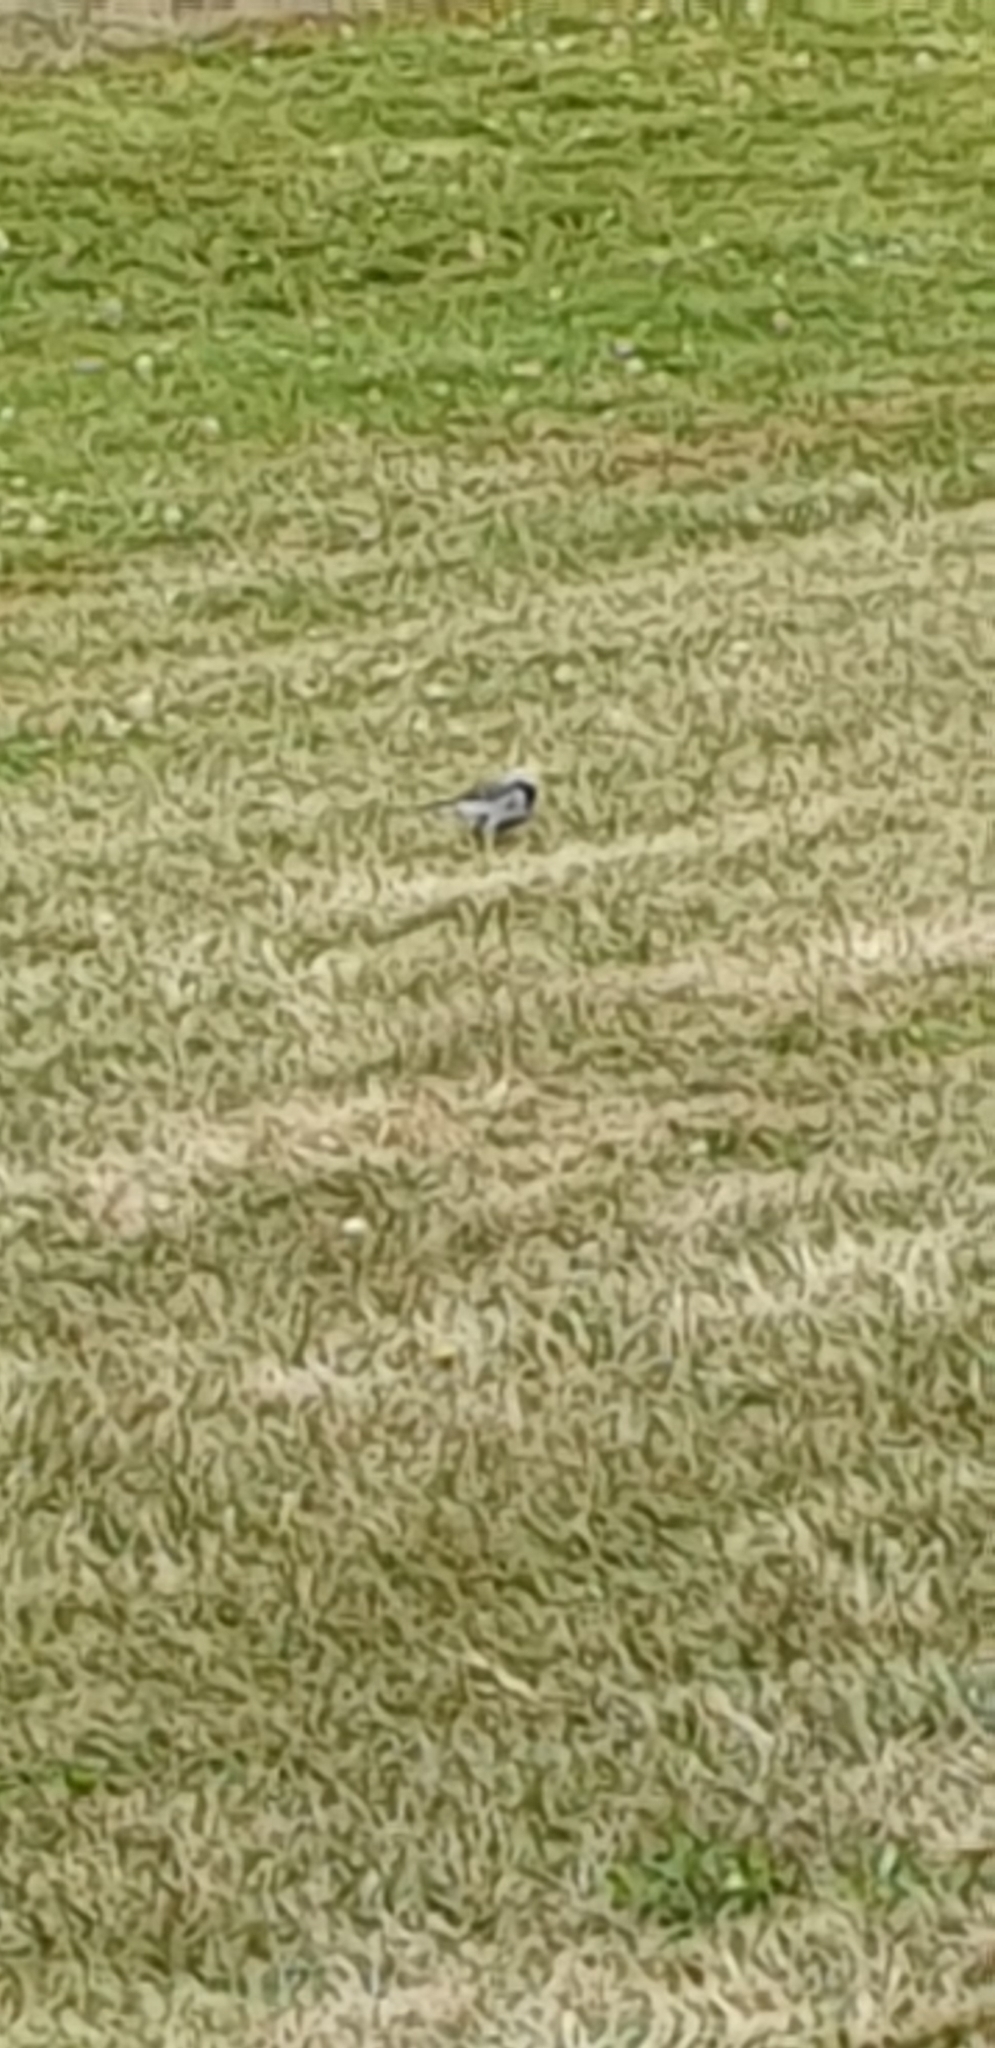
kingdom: Animalia
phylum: Chordata
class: Aves
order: Passeriformes
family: Motacillidae
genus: Motacilla
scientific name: Motacilla alba
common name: White wagtail
